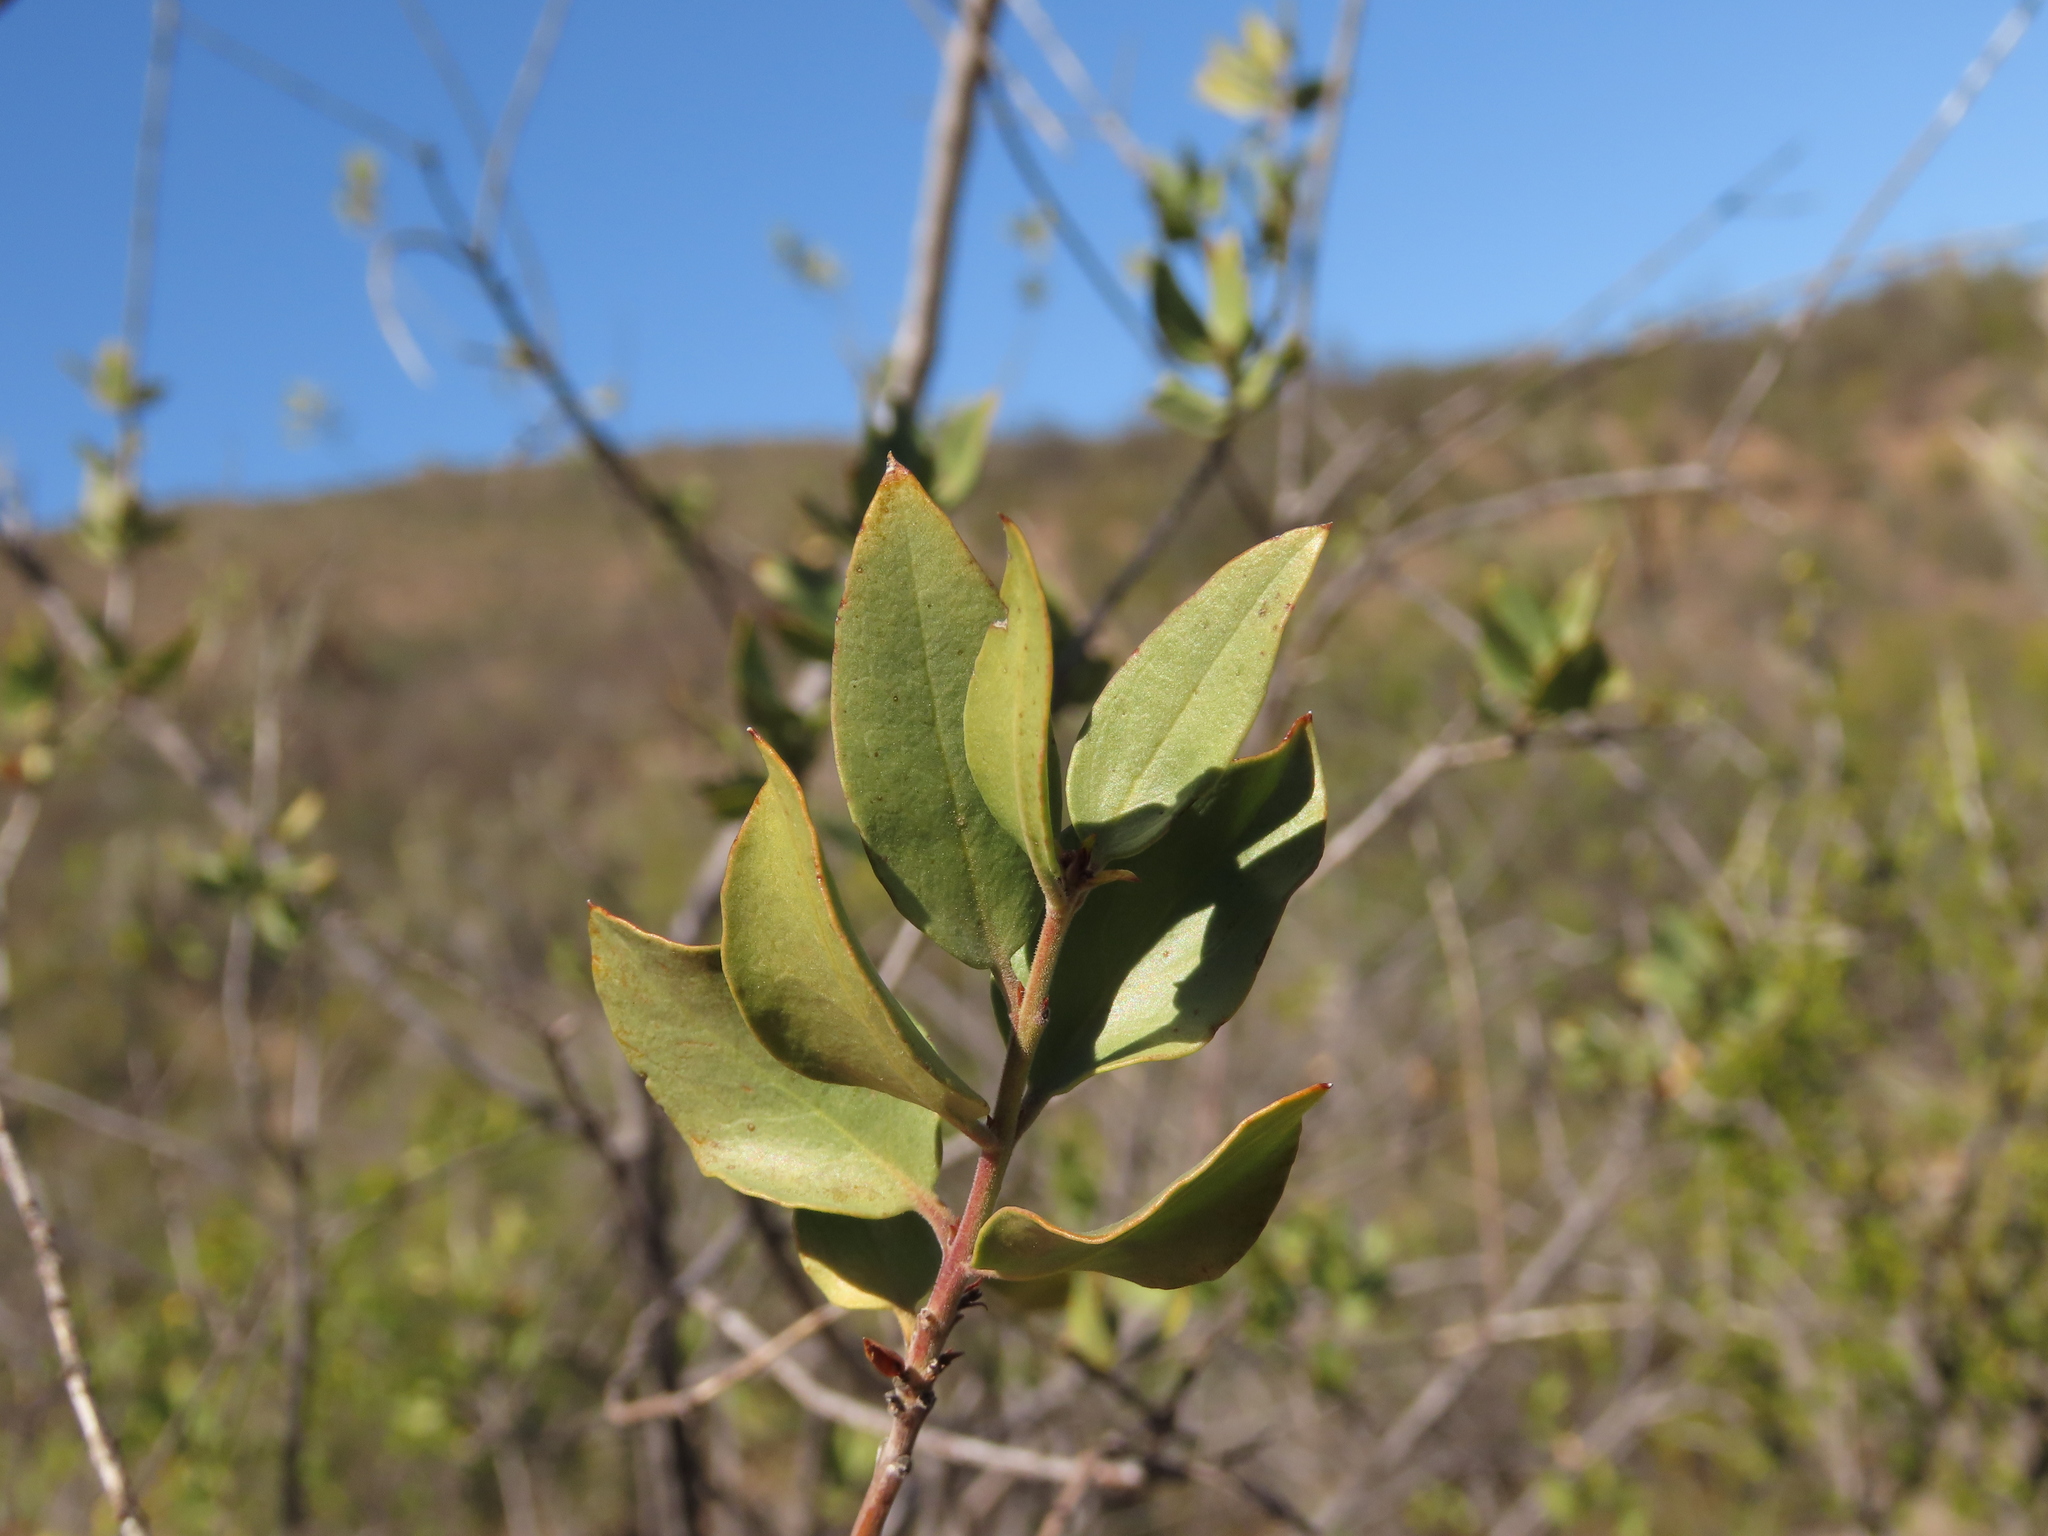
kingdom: Plantae
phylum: Tracheophyta
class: Magnoliopsida
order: Lamiales
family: Plantaginaceae
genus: Monttea
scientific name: Monttea chilensis
